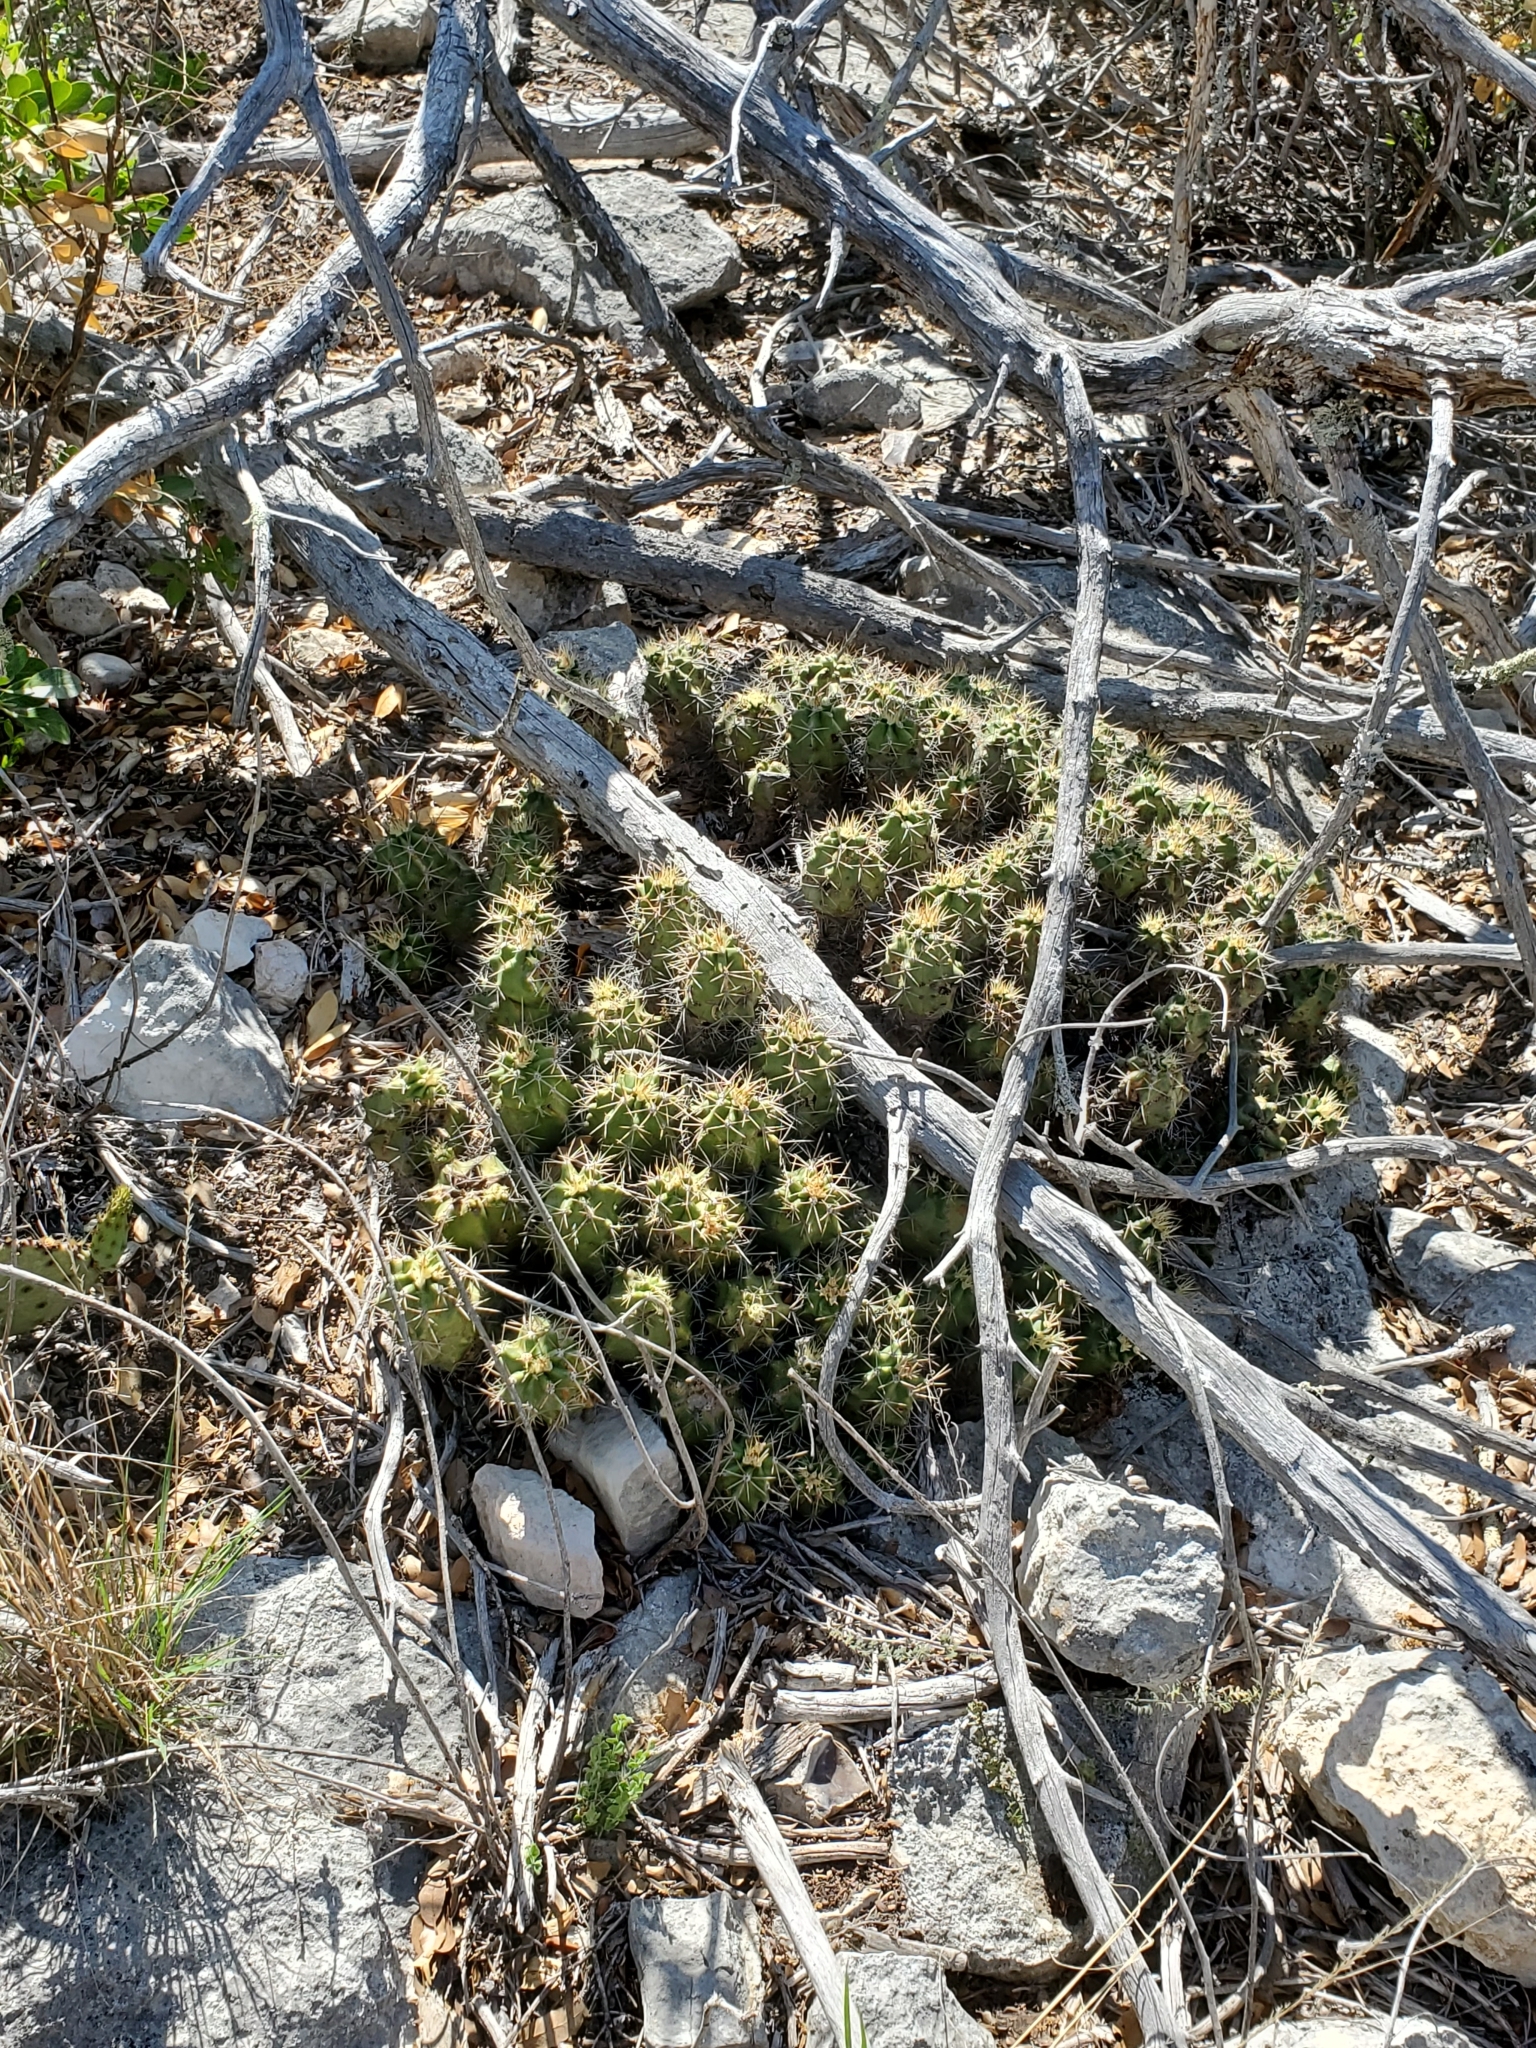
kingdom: Plantae
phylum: Tracheophyta
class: Magnoliopsida
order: Caryophyllales
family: Cactaceae
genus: Echinocereus
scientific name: Echinocereus coccineus
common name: Scarlet hedgehog cactus
